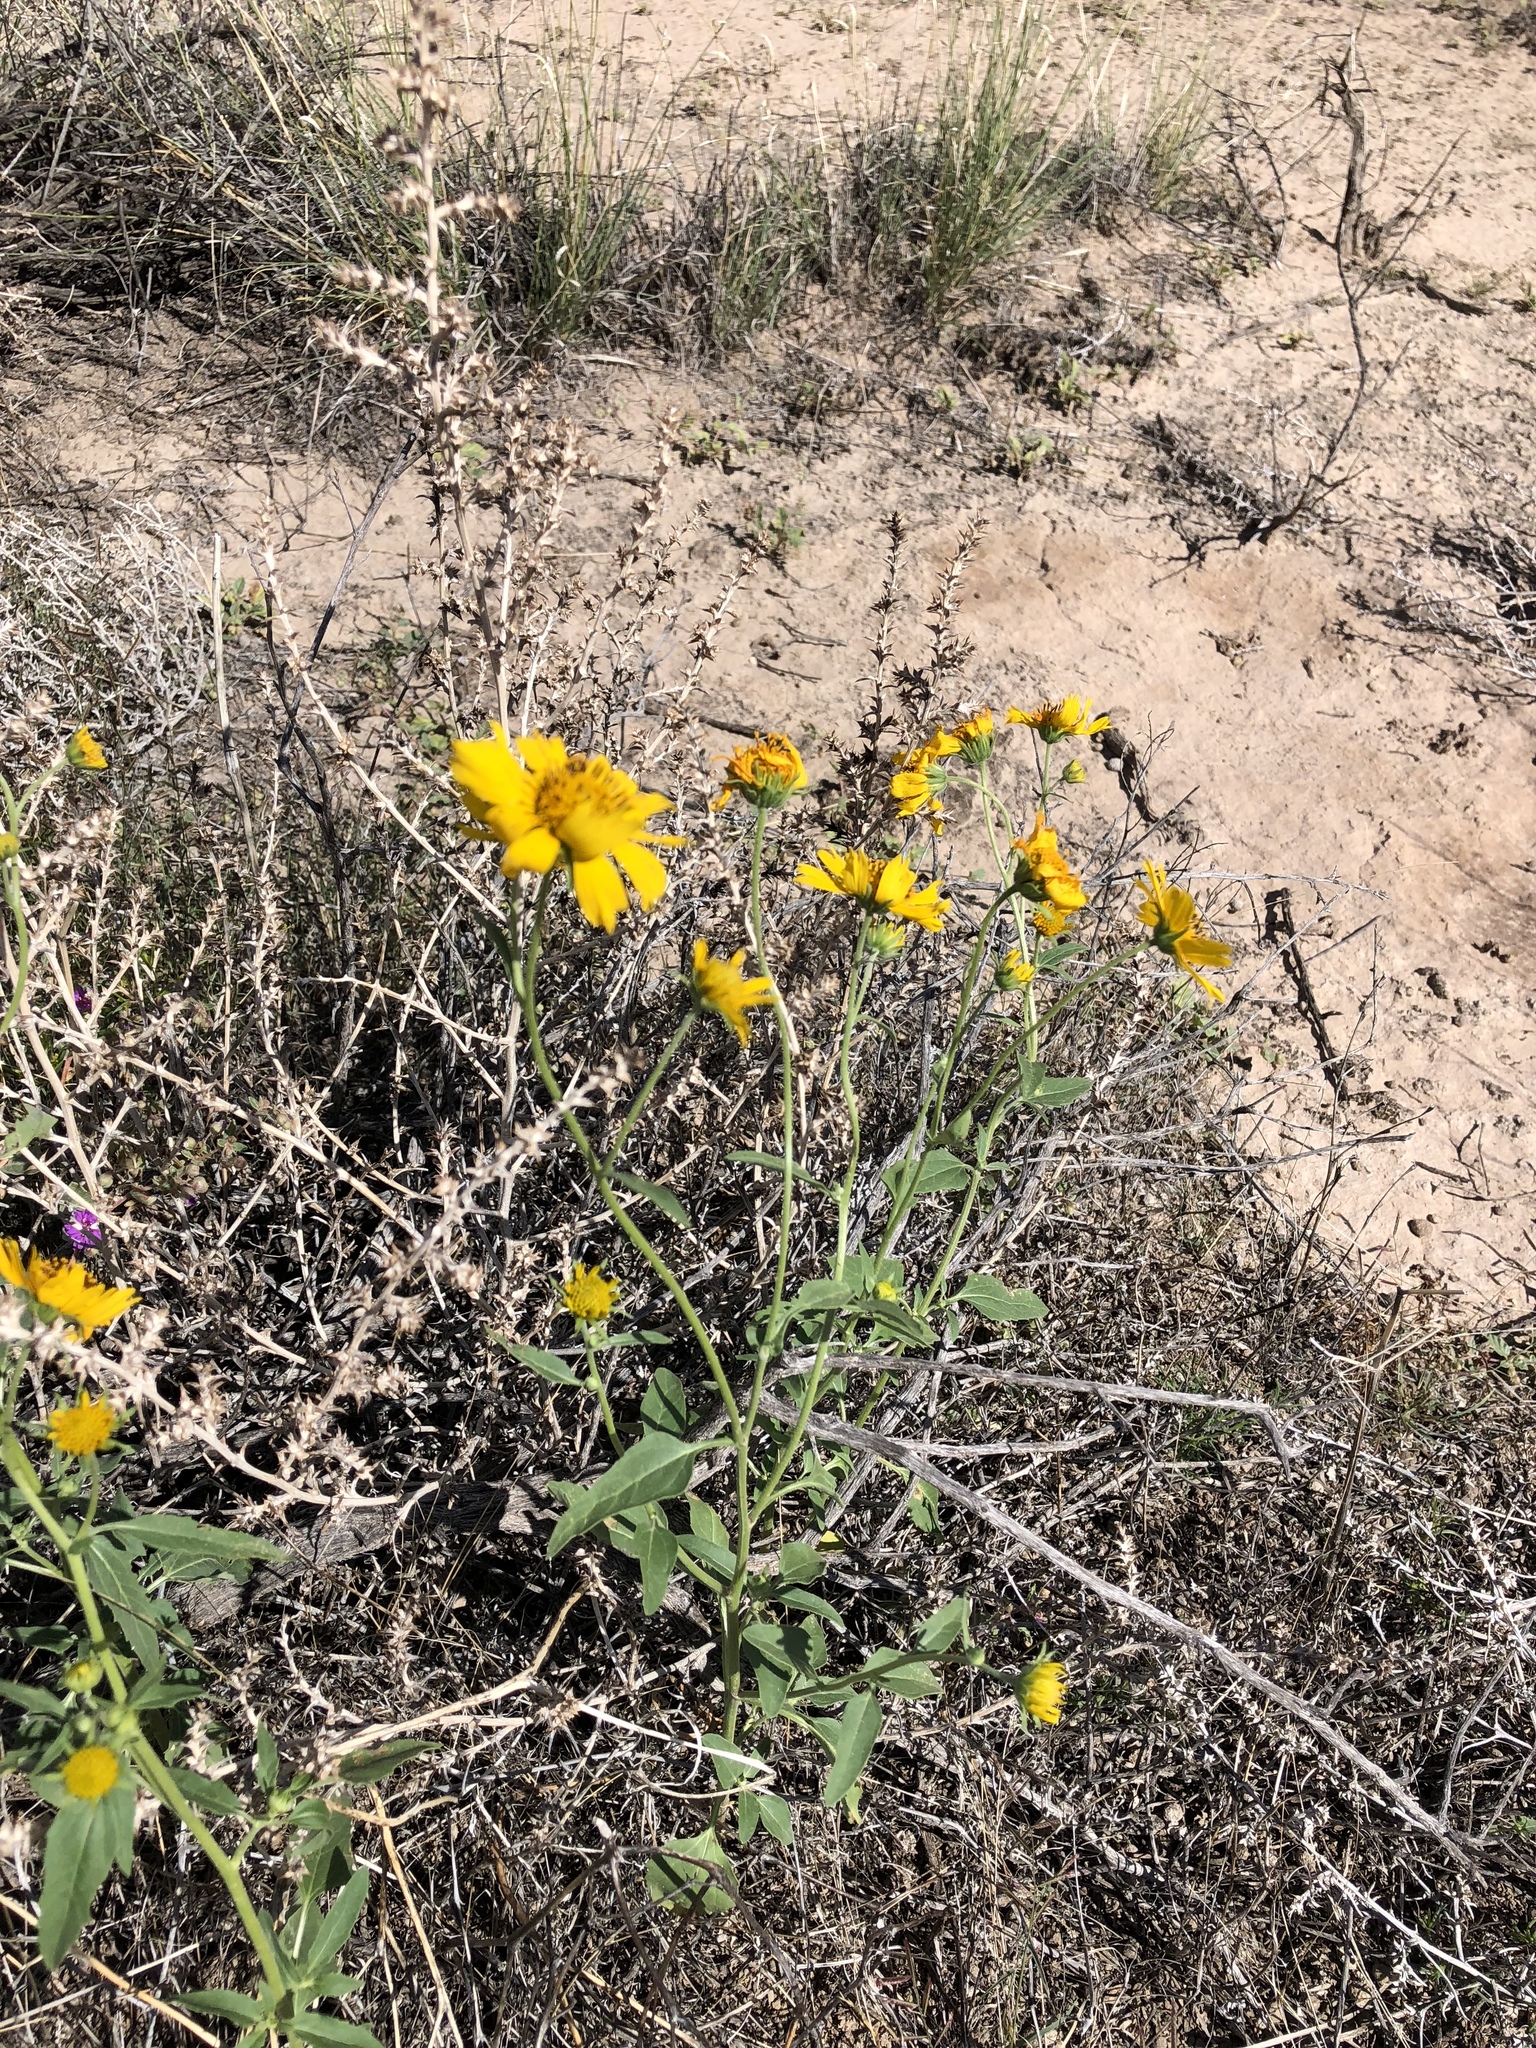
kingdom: Plantae
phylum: Tracheophyta
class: Magnoliopsida
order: Asterales
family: Asteraceae
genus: Verbesina
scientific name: Verbesina encelioides
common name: Golden crownbeard
